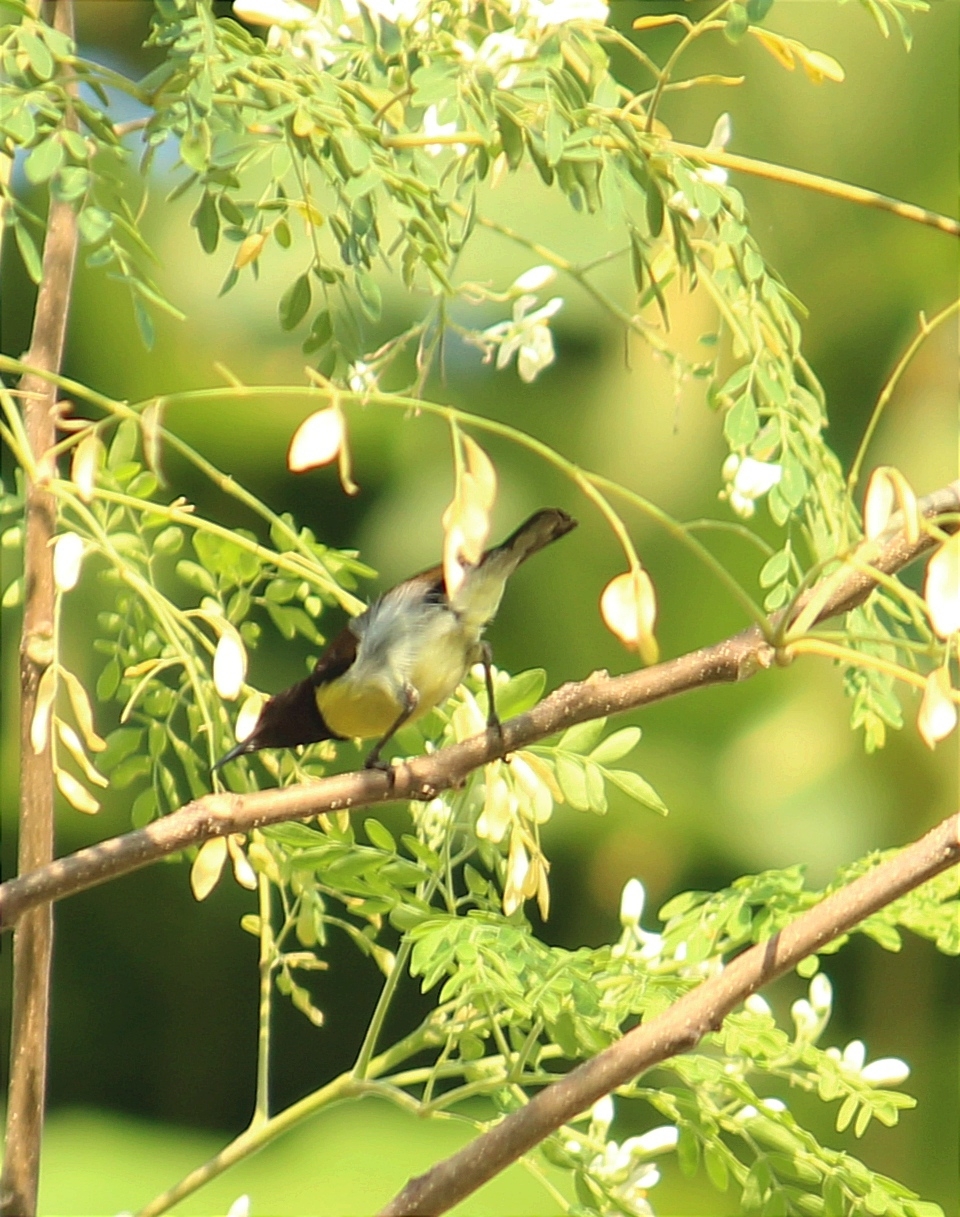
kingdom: Animalia
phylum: Chordata
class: Aves
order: Passeriformes
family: Nectariniidae
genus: Leptocoma
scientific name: Leptocoma zeylonica
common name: Purple-rumped sunbird
